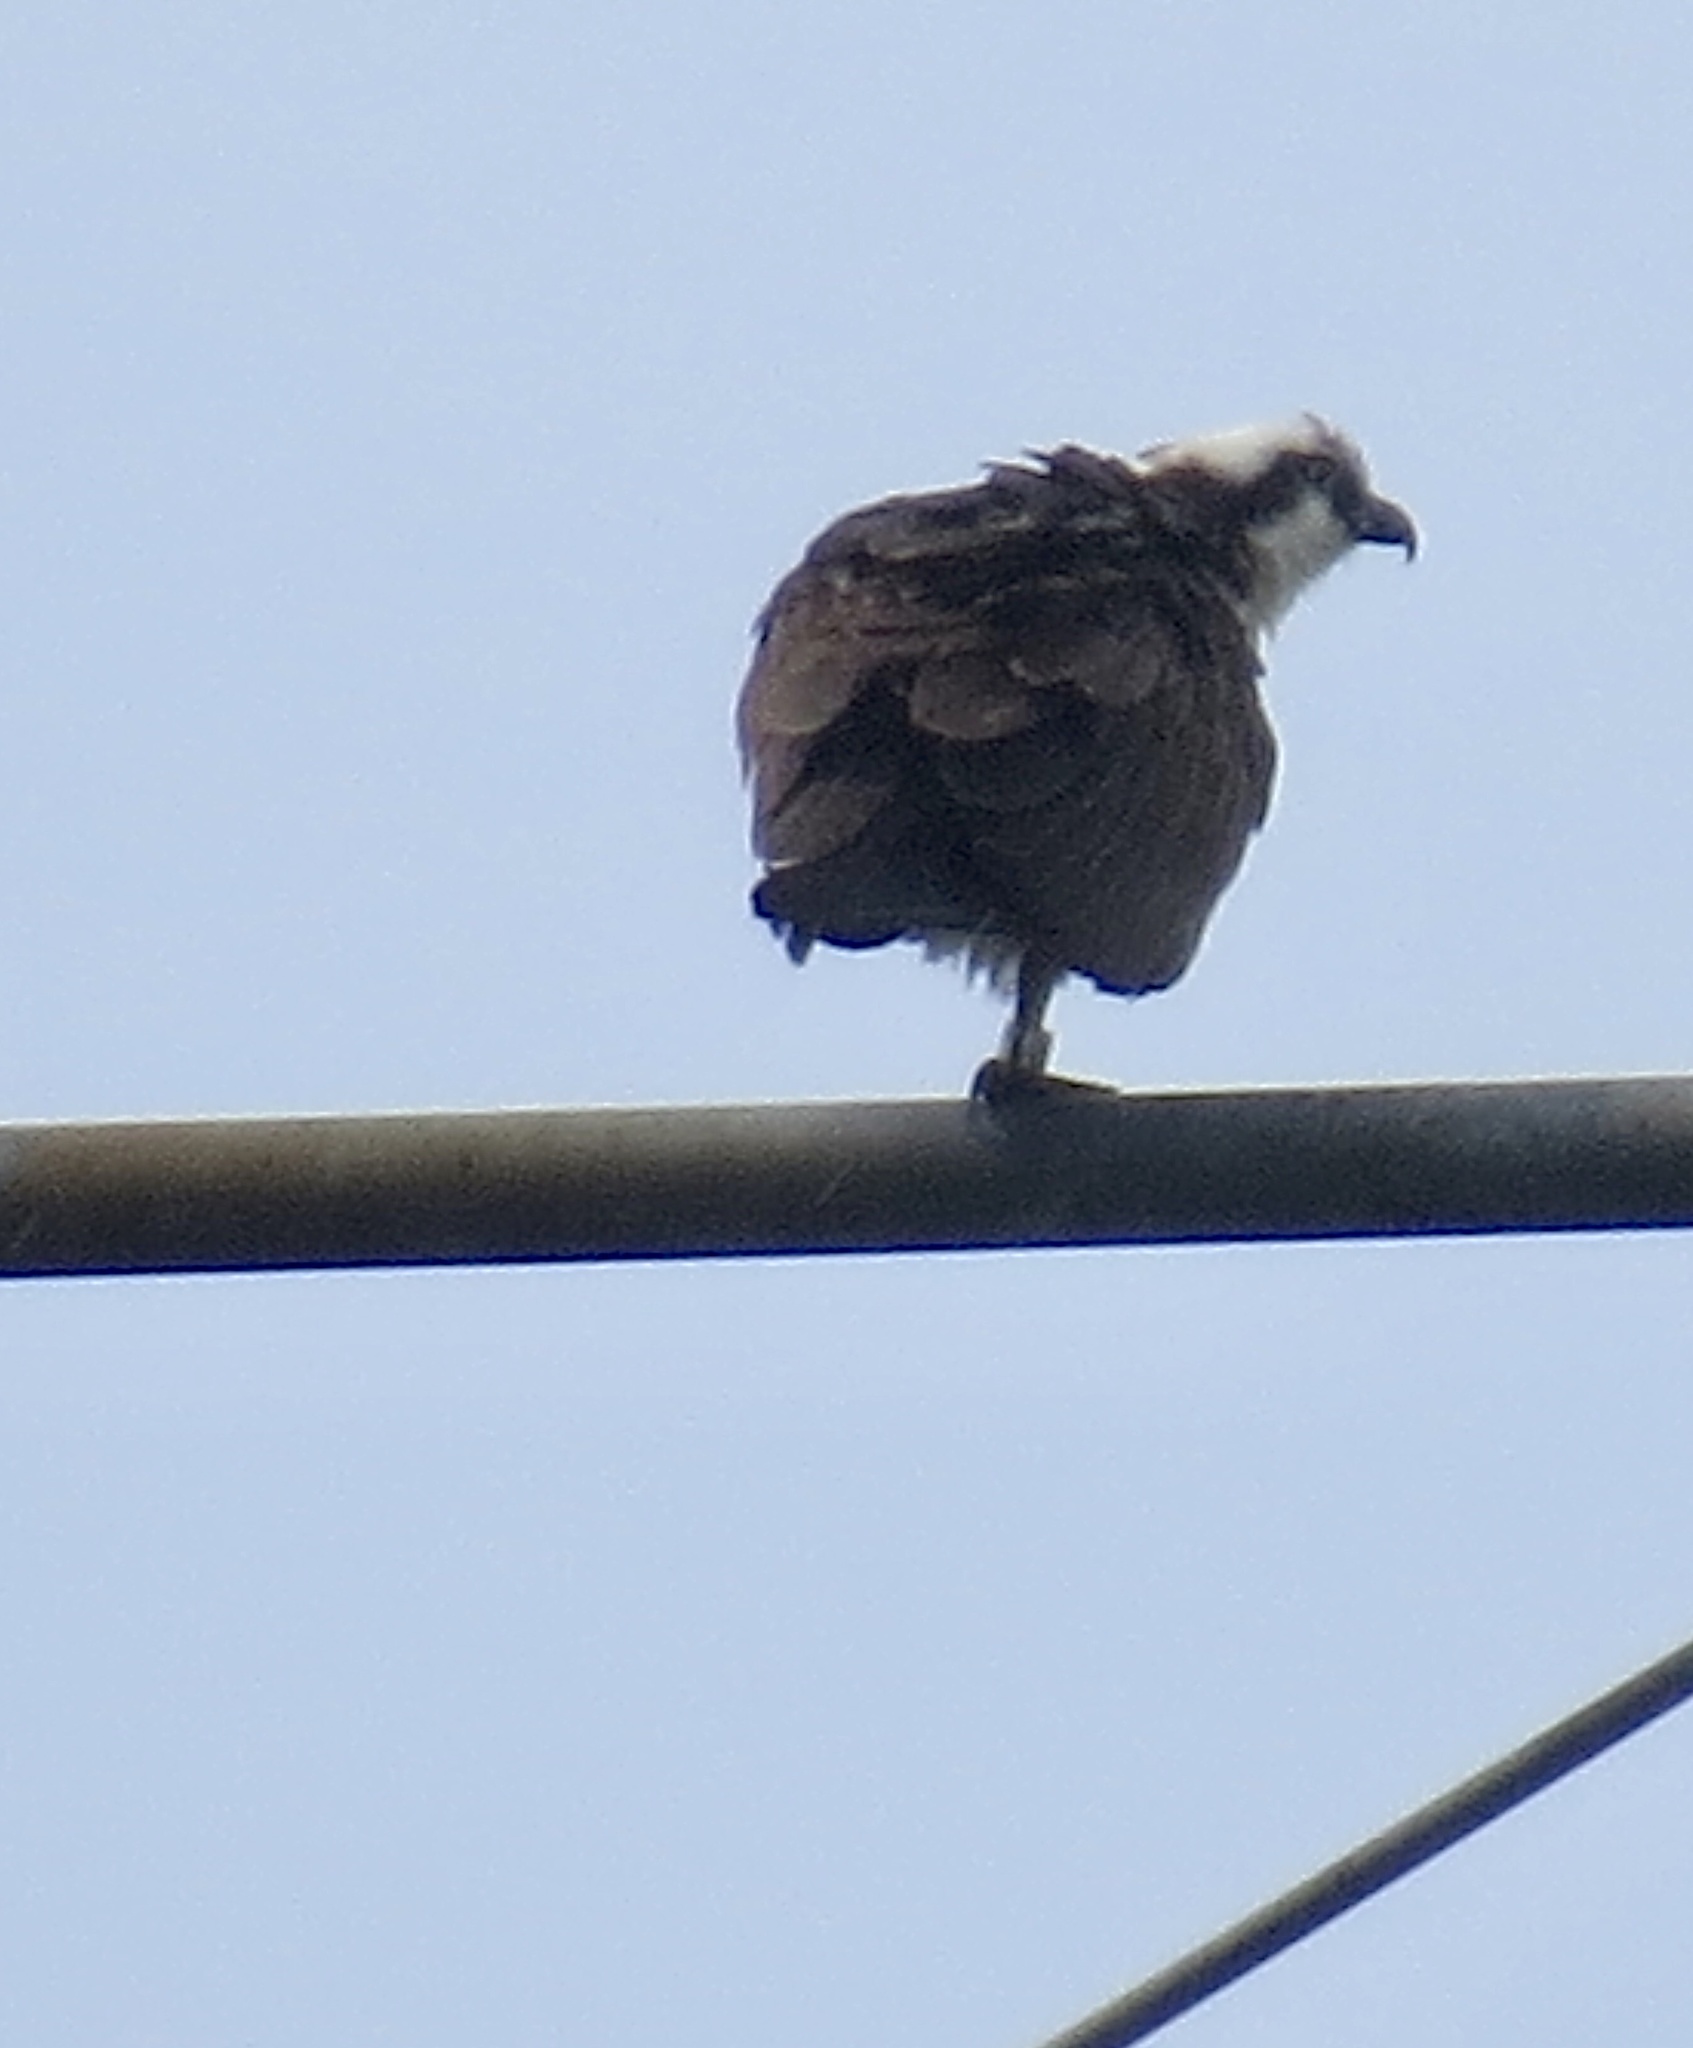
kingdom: Animalia
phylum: Chordata
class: Aves
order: Accipitriformes
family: Pandionidae
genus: Pandion
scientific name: Pandion haliaetus
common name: Osprey
